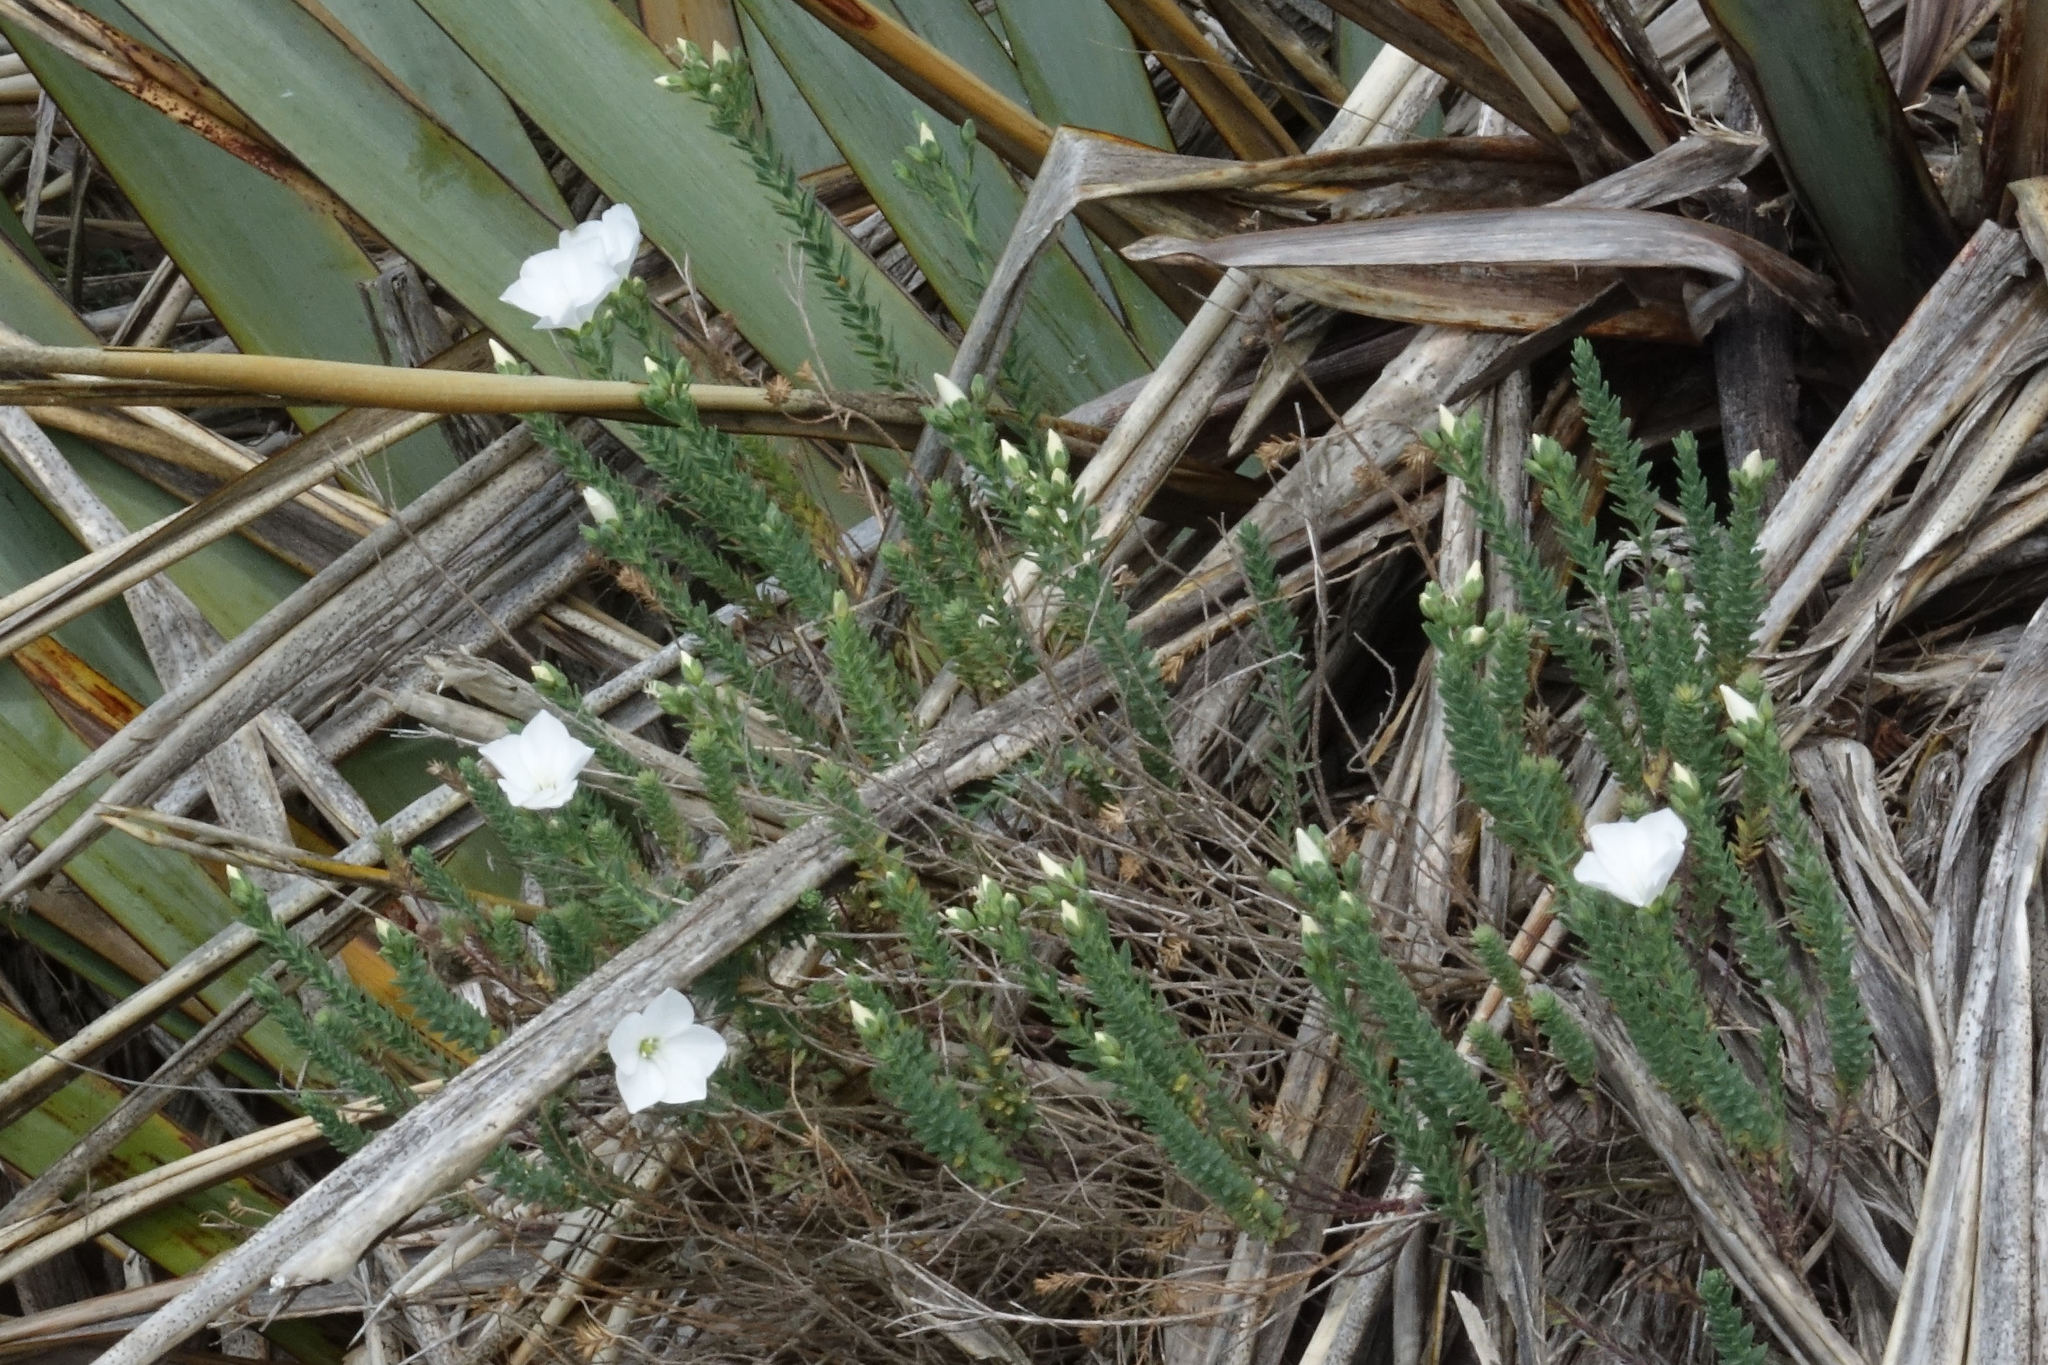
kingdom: Plantae
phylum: Tracheophyta
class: Magnoliopsida
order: Malpighiales
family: Linaceae
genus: Linum
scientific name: Linum monogynum
